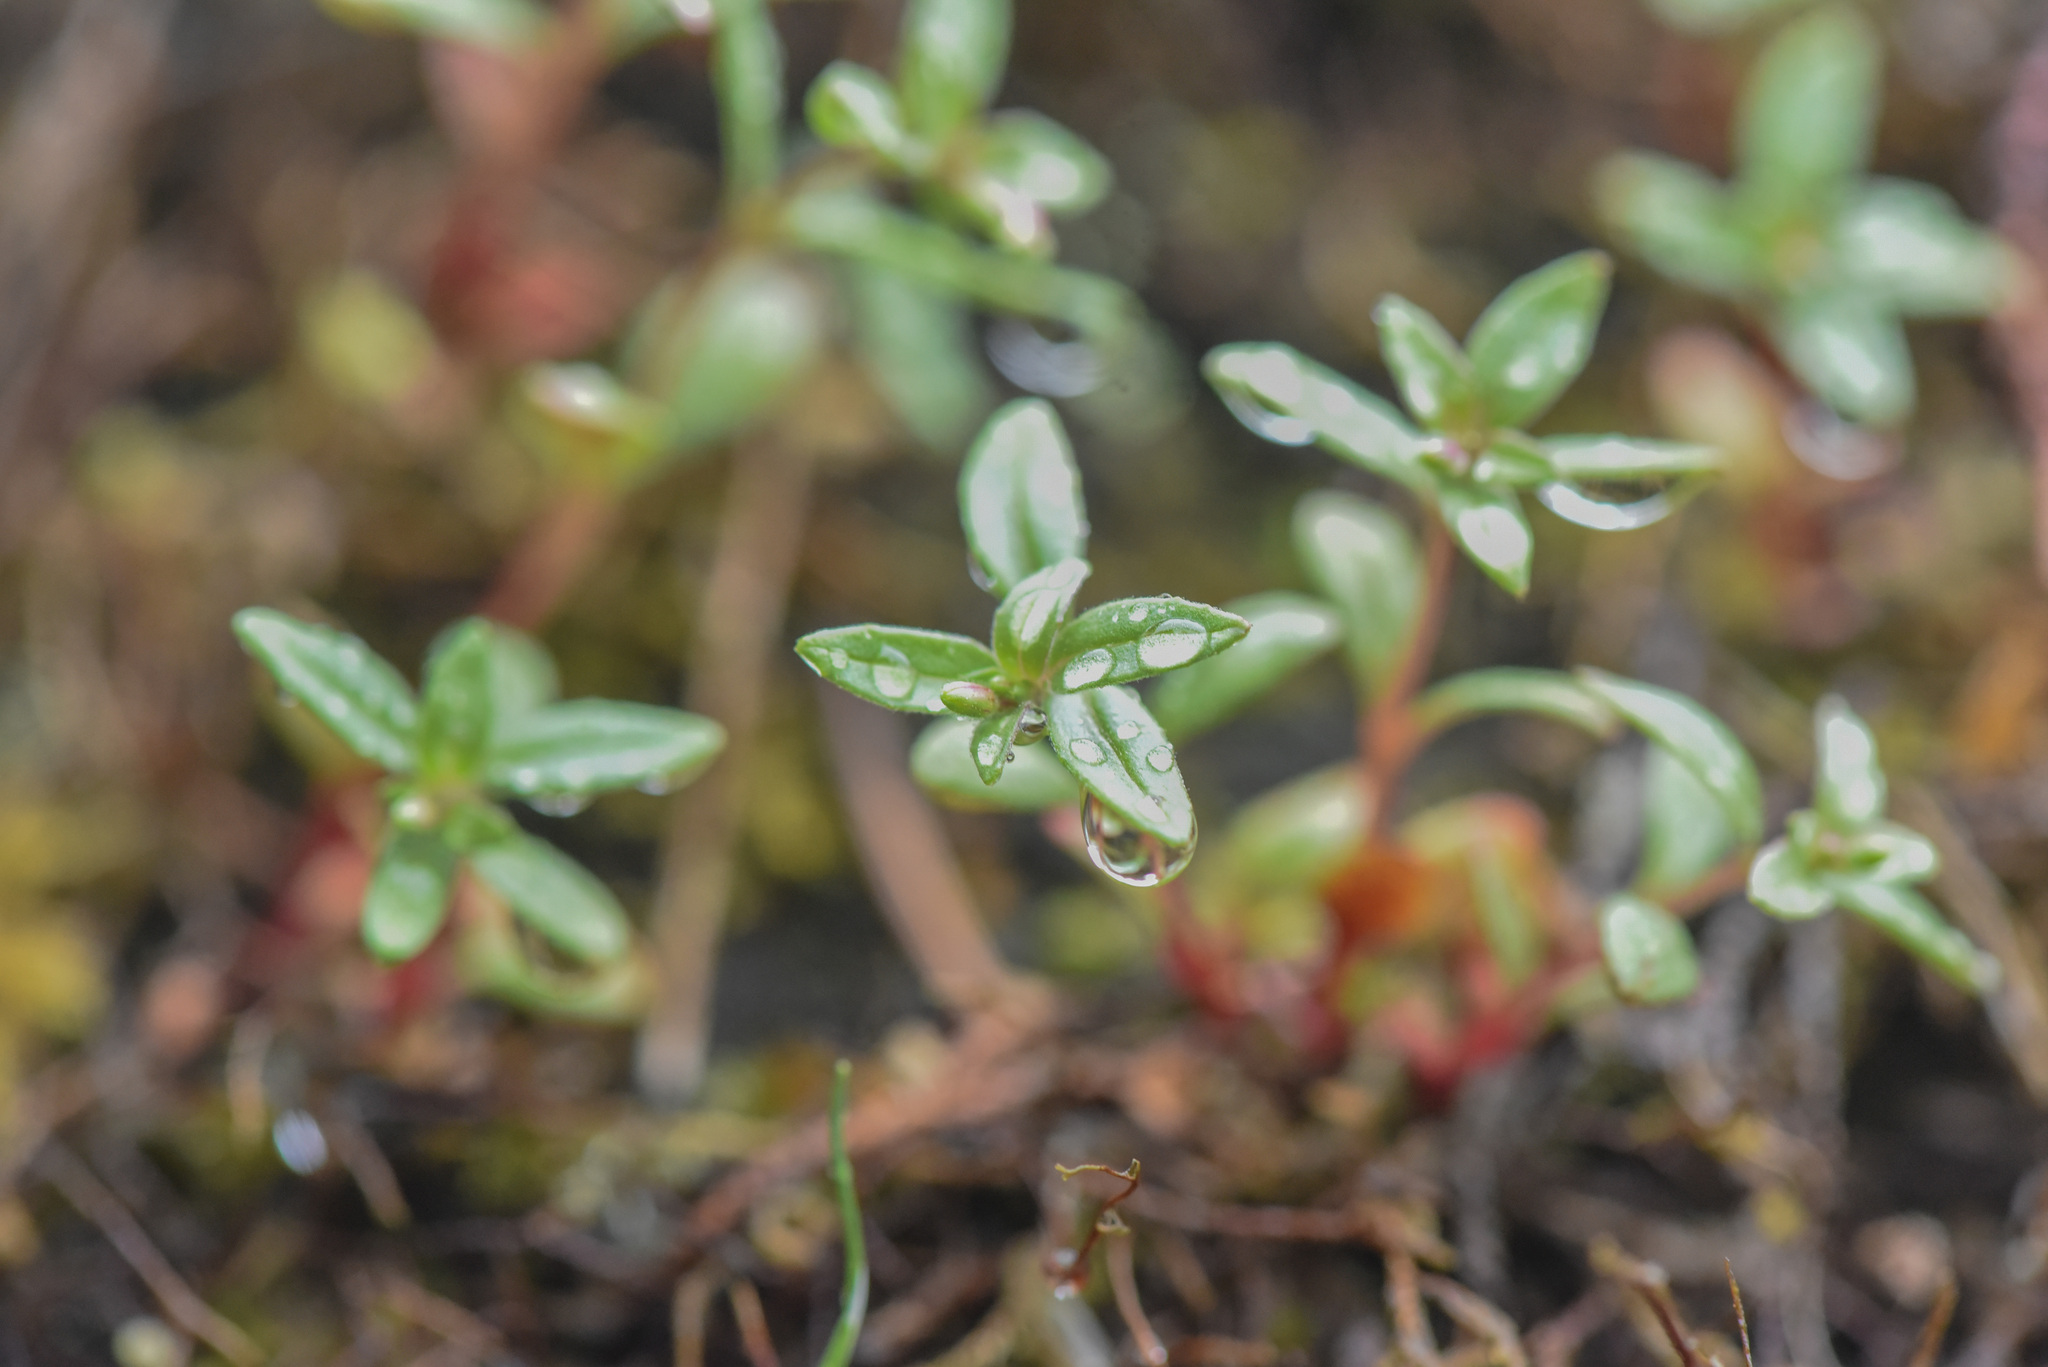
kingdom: Plantae
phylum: Tracheophyta
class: Magnoliopsida
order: Myrtales
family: Onagraceae
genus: Epilobium
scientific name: Epilobium minutum
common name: Chaparral willowherb
